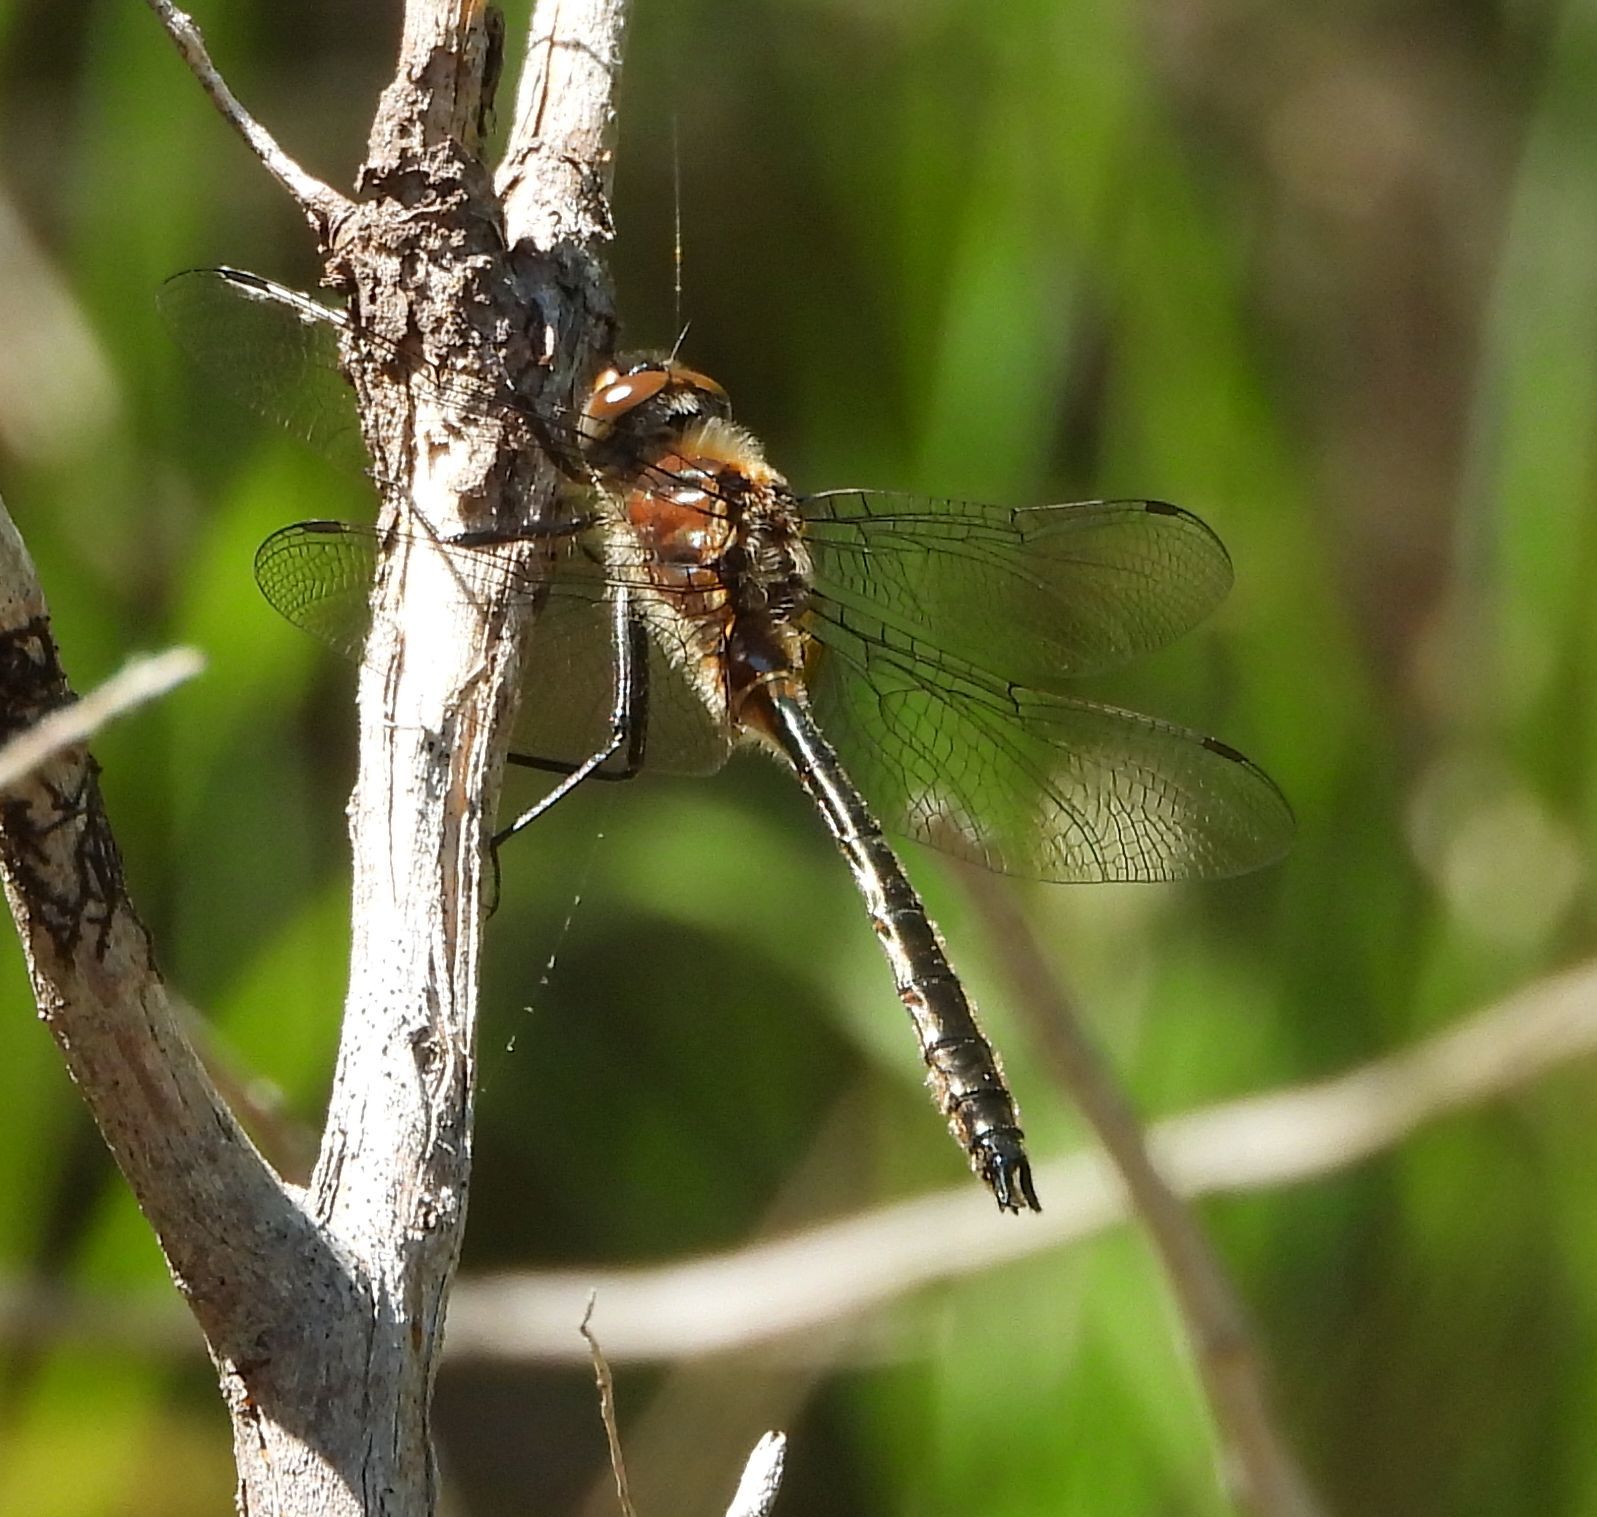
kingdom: Animalia
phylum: Arthropoda
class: Insecta
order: Odonata
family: Corduliidae
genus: Cordulia
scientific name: Cordulia shurtleffii
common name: American emerald
